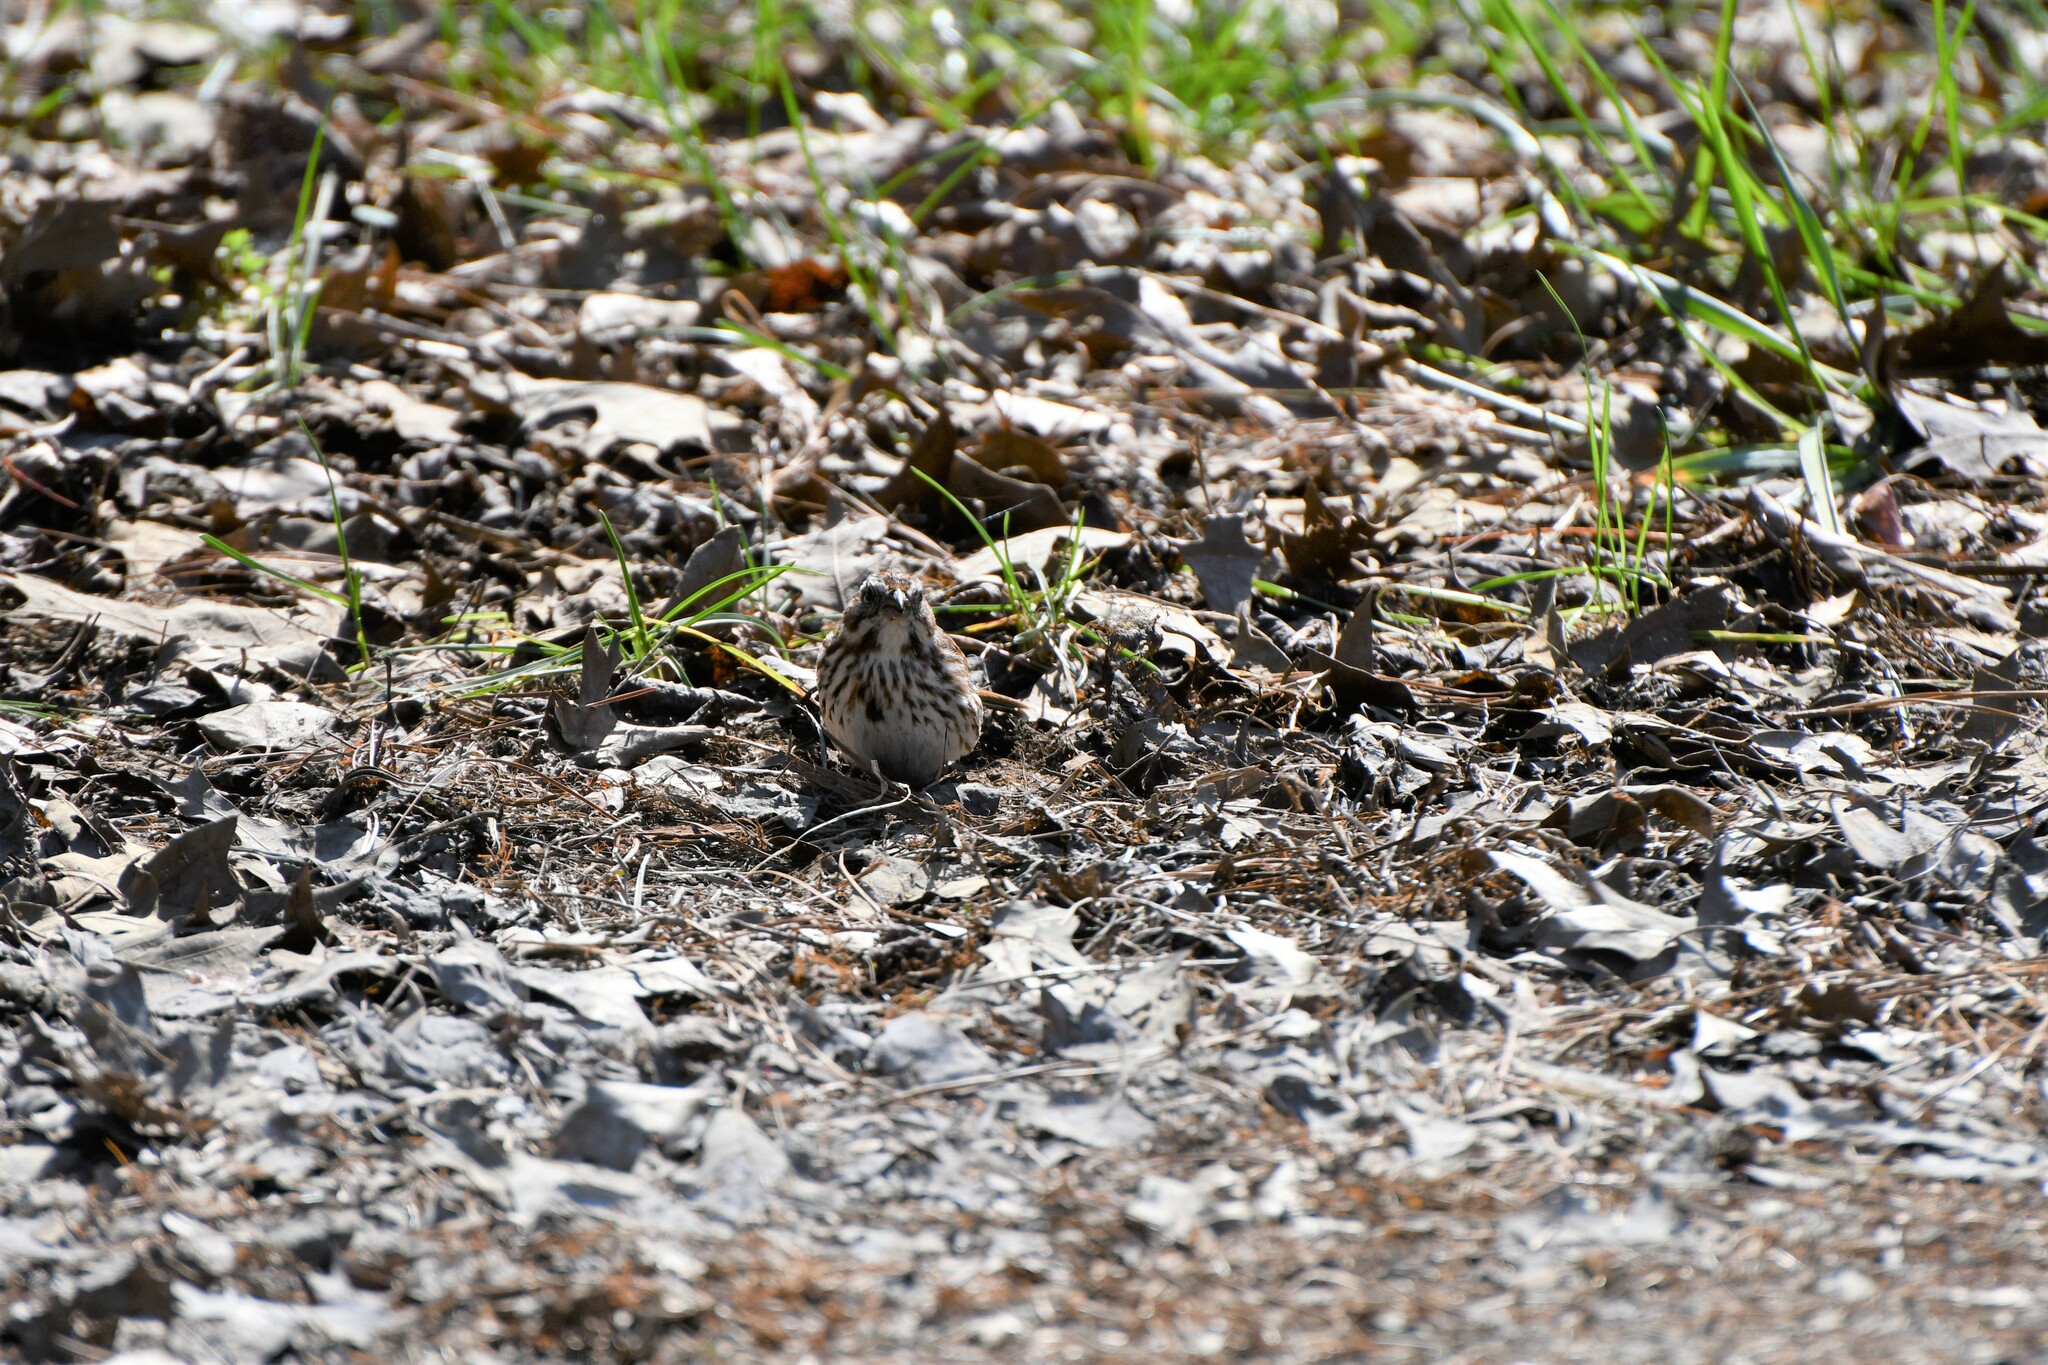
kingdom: Animalia
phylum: Chordata
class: Aves
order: Passeriformes
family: Passerellidae
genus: Melospiza
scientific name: Melospiza melodia
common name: Song sparrow
